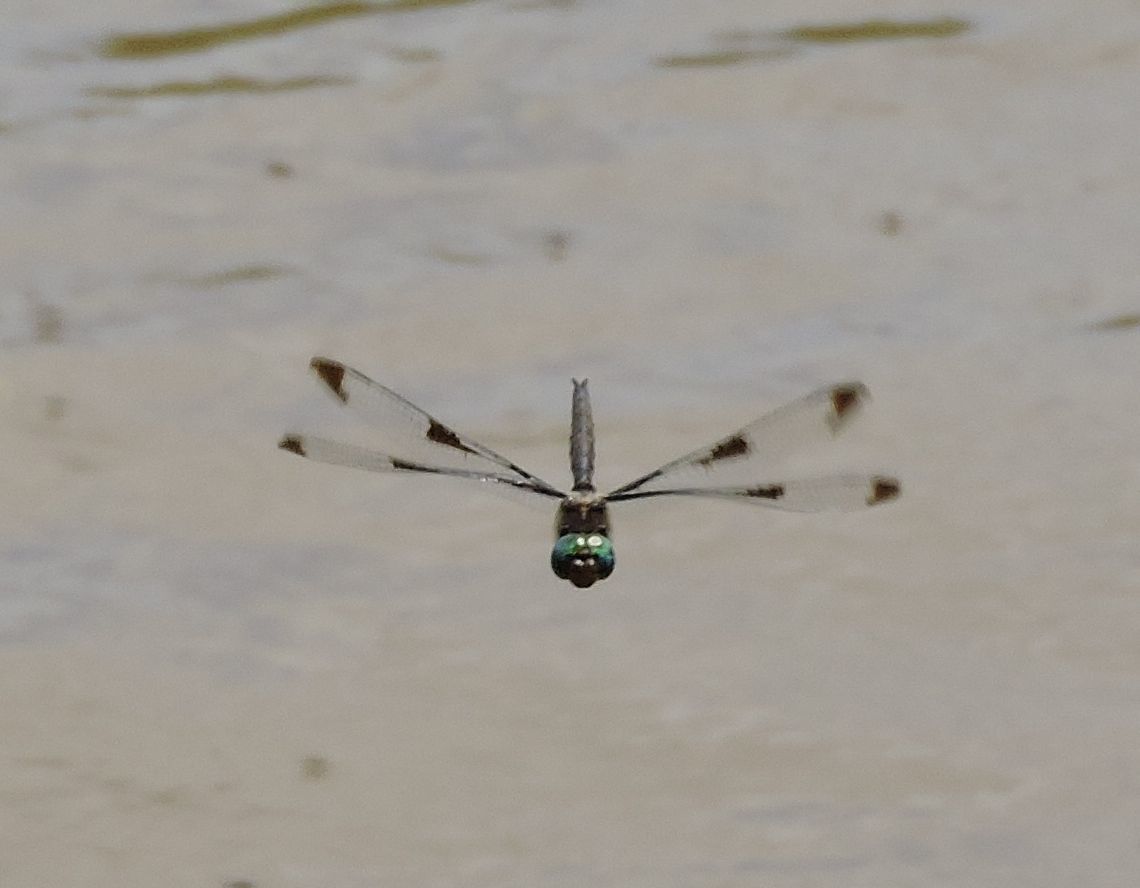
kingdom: Animalia
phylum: Arthropoda
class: Insecta
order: Odonata
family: Corduliidae
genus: Epitheca
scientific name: Epitheca princeps
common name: Prince baskettail
